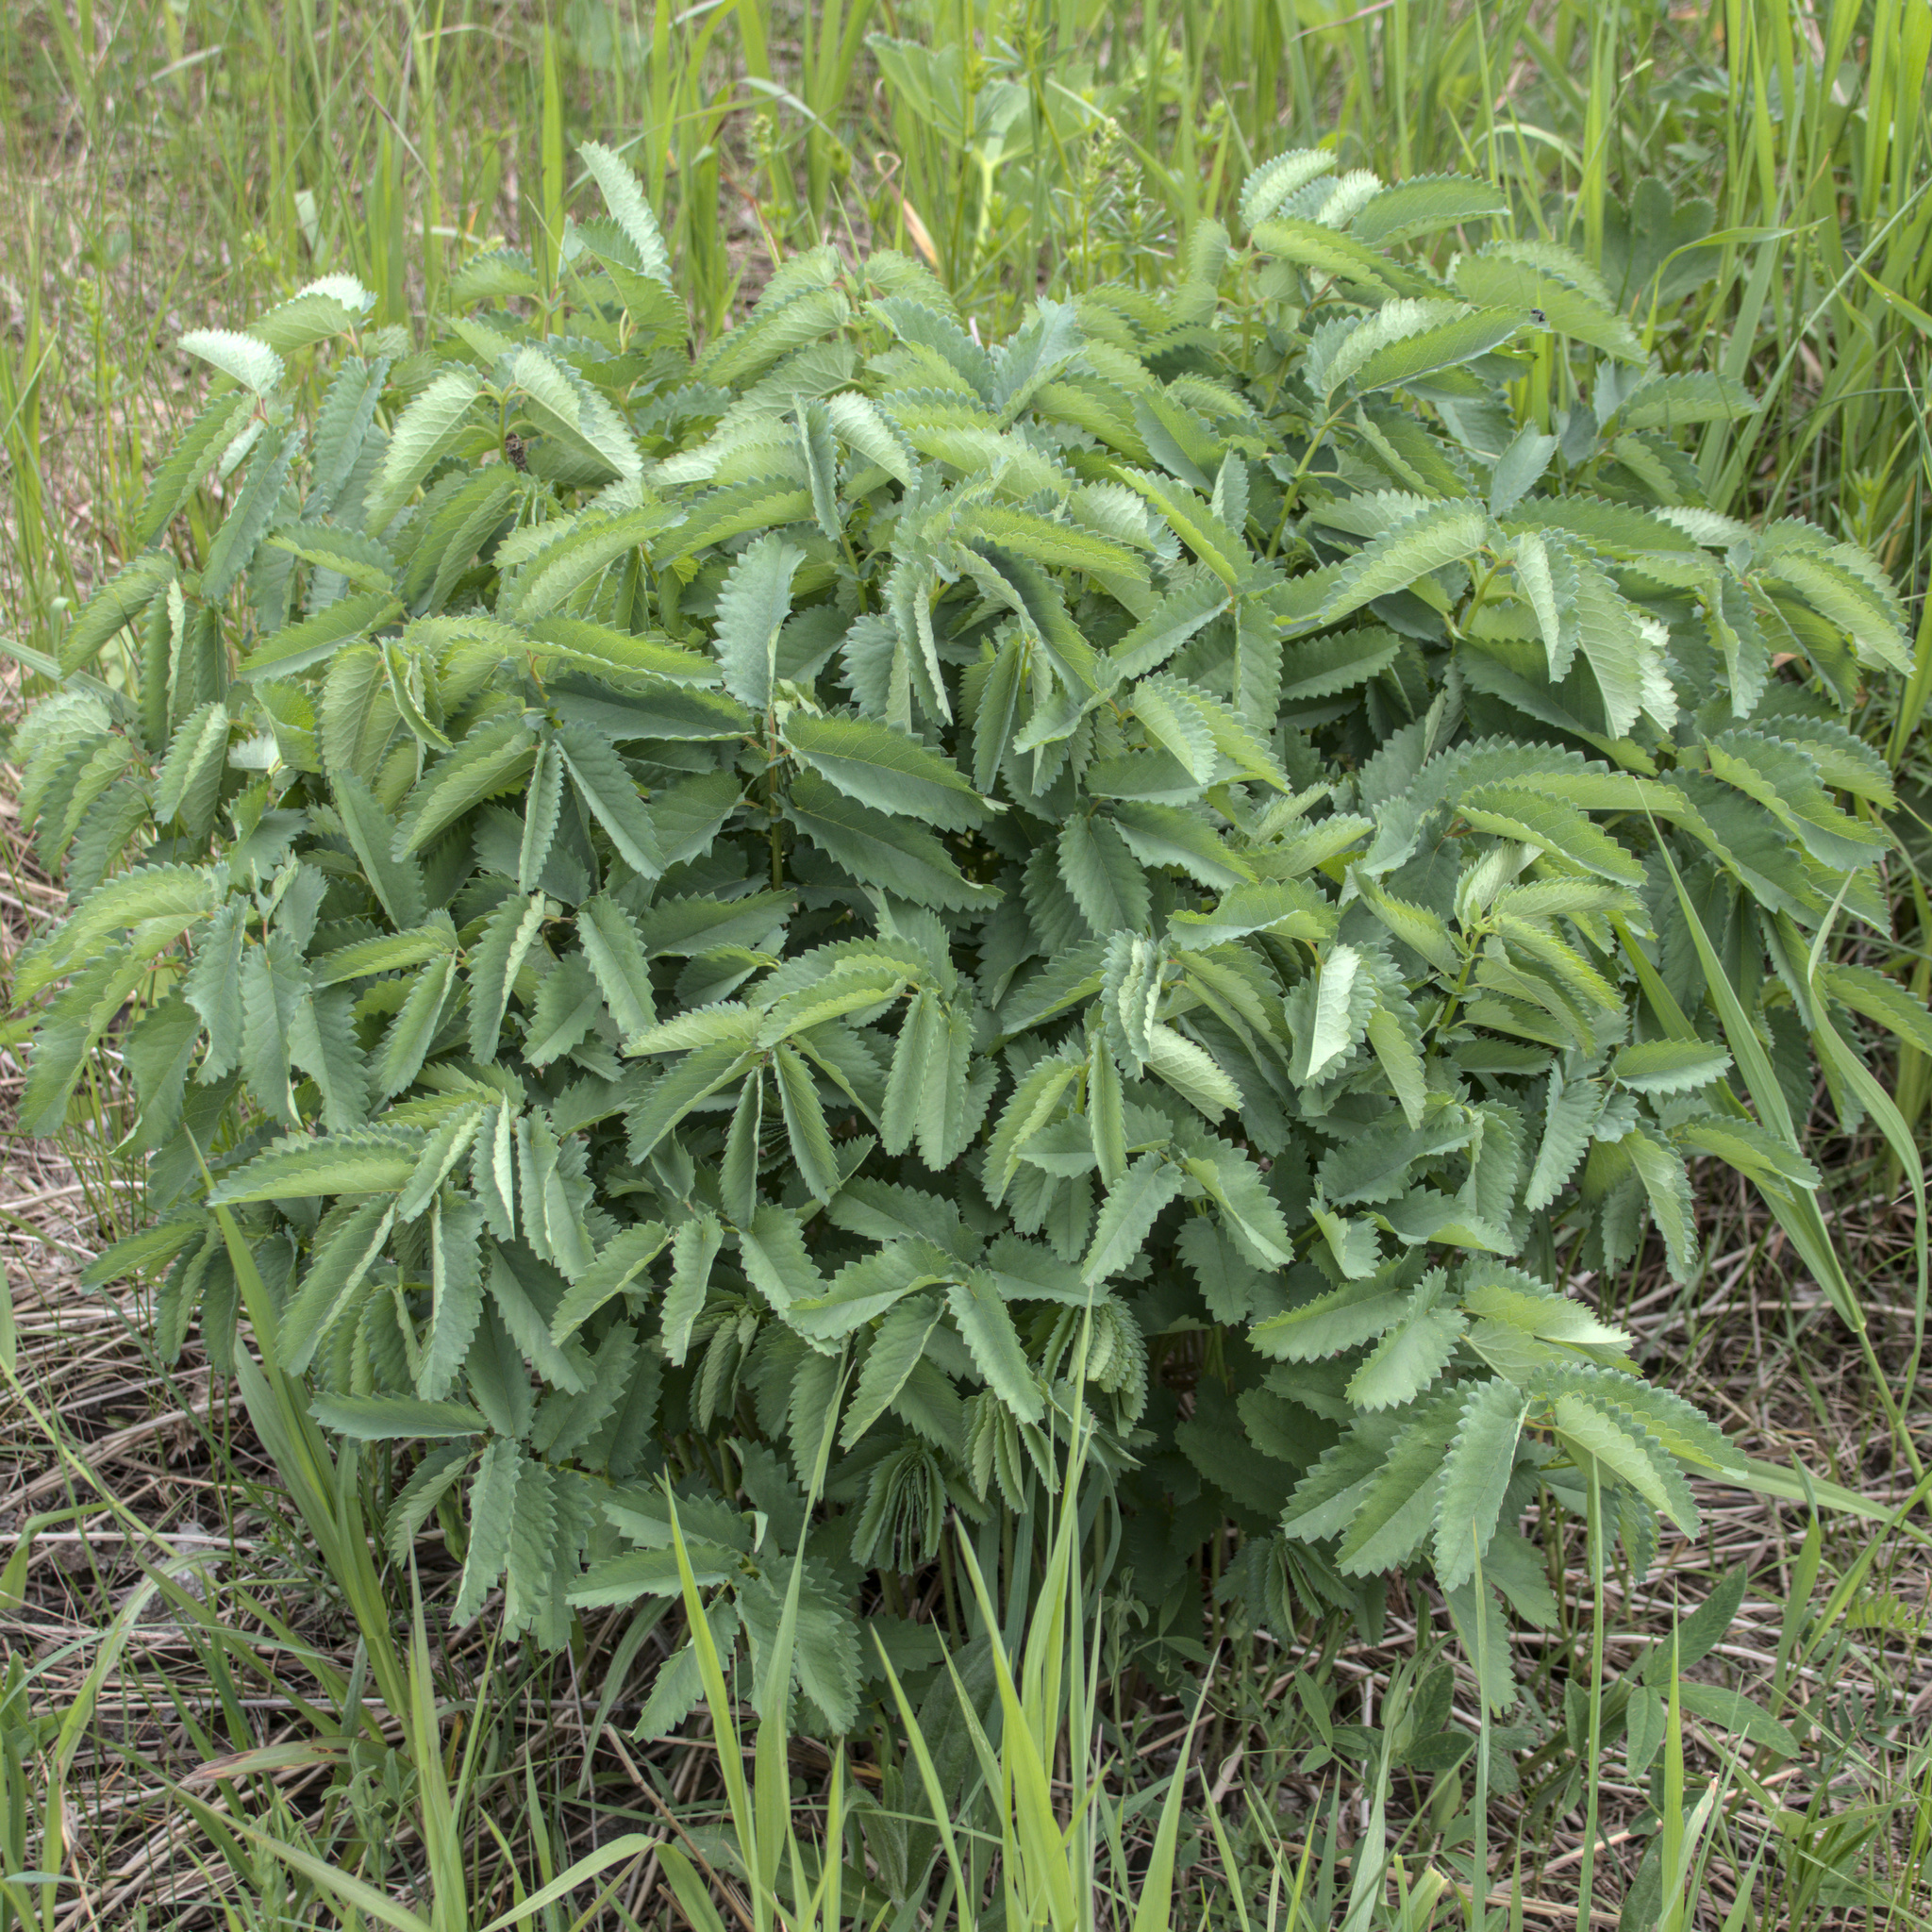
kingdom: Plantae
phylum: Tracheophyta
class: Magnoliopsida
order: Rosales
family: Rosaceae
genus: Sanguisorba
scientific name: Sanguisorba officinalis
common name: Great burnet
